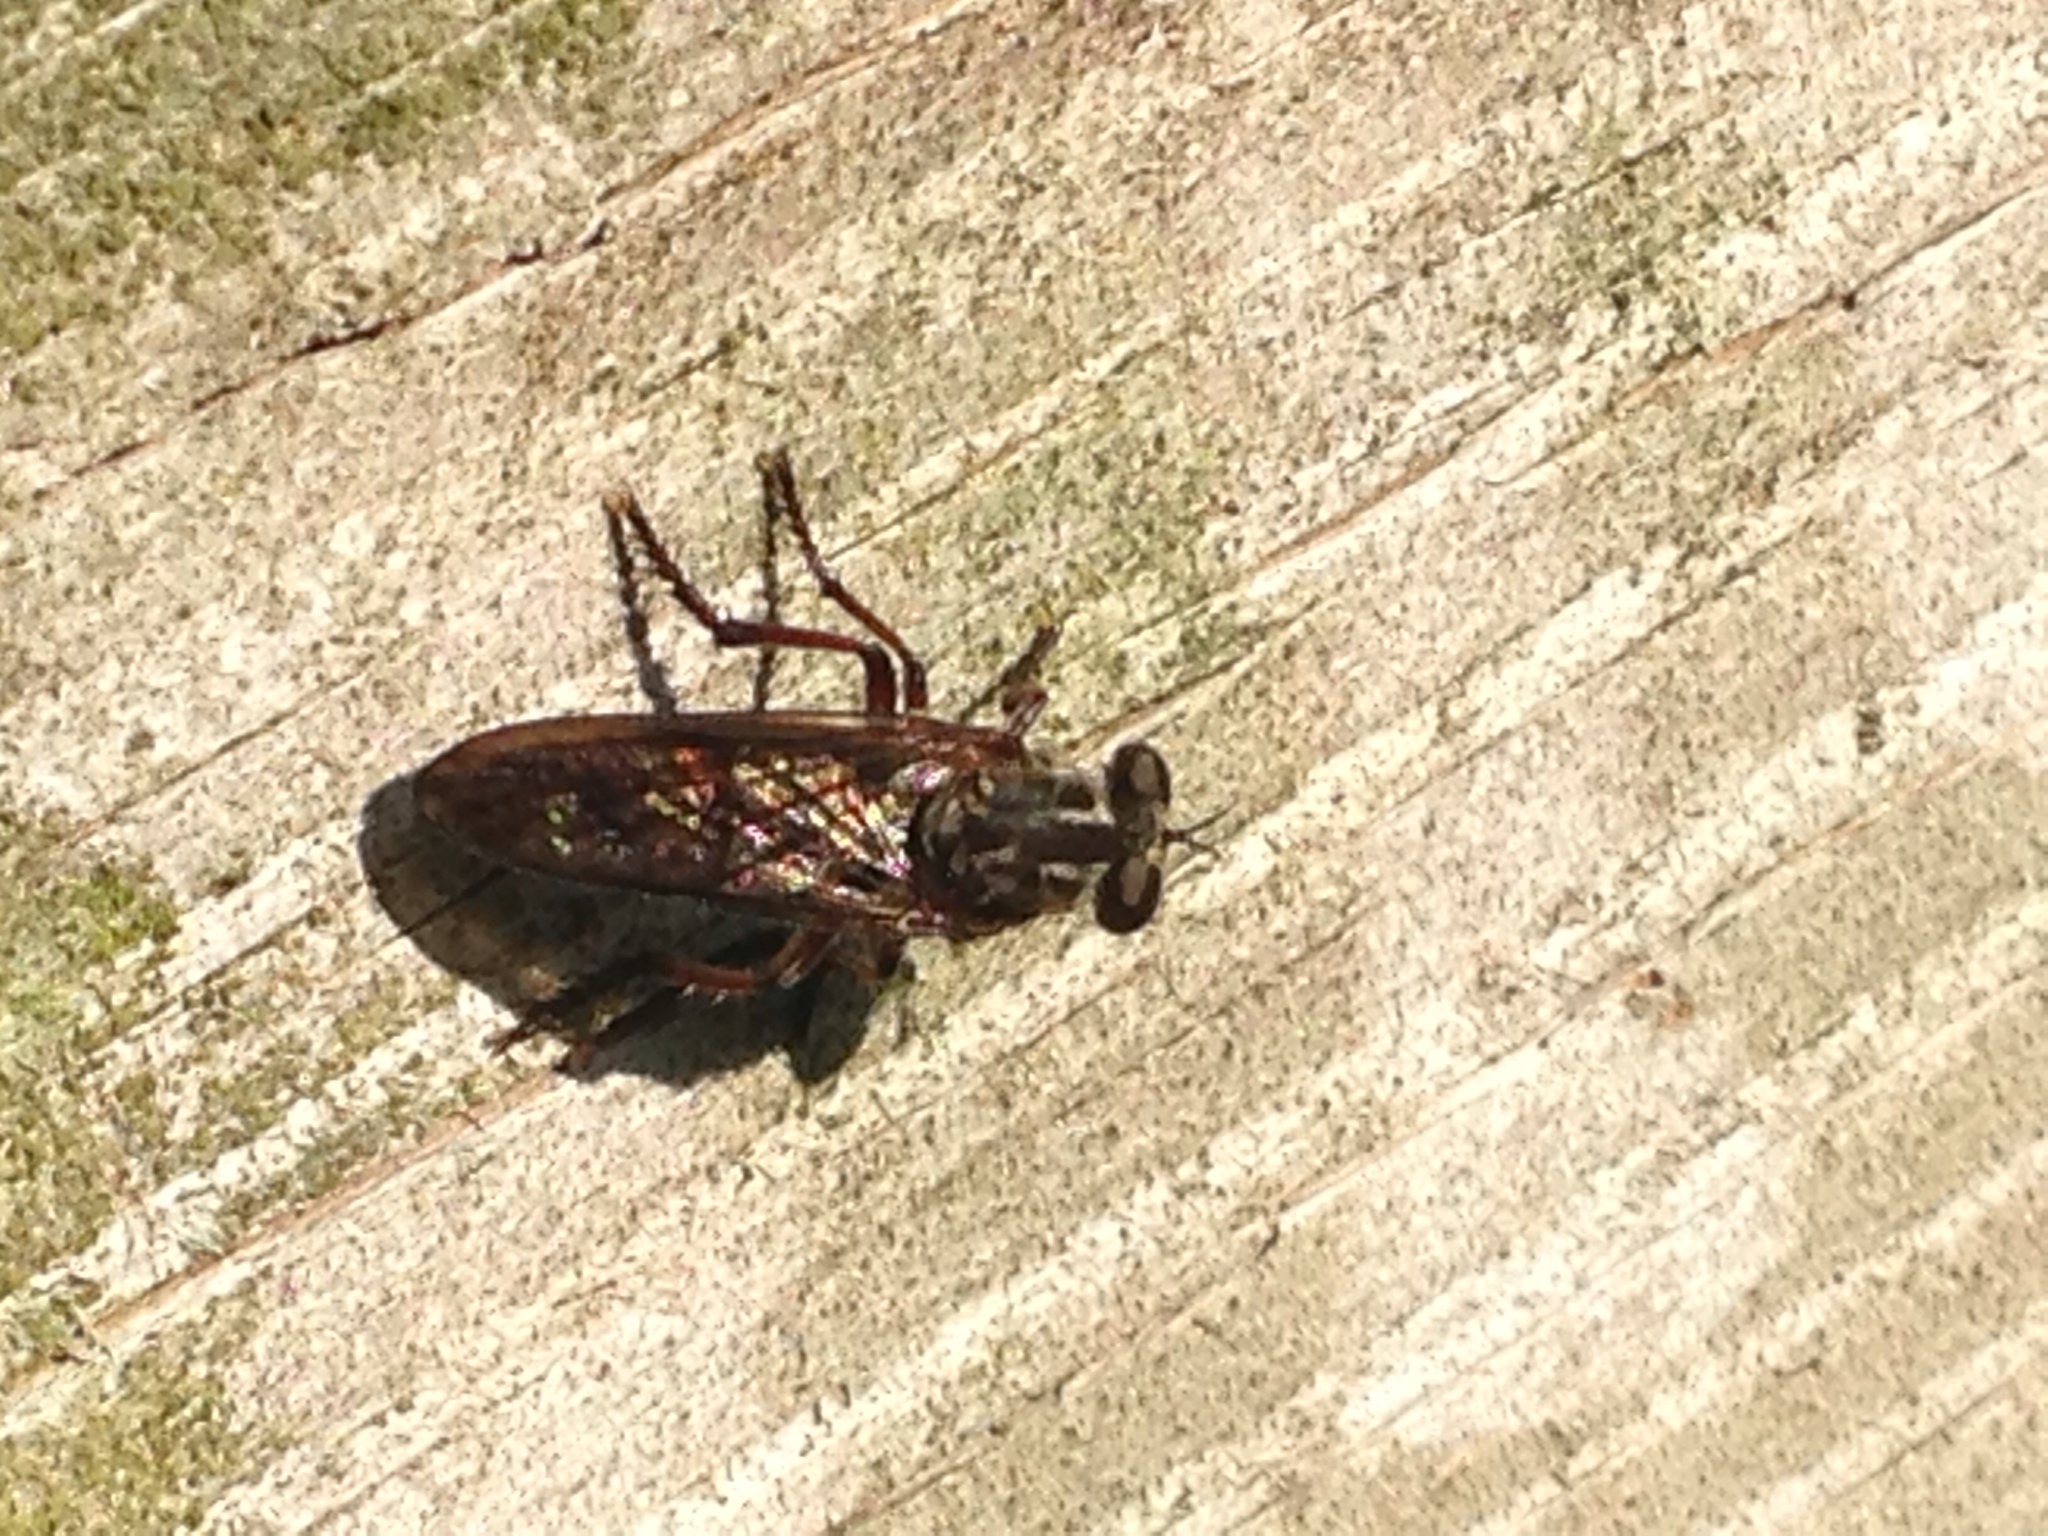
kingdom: Animalia
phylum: Arthropoda
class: Insecta
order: Diptera
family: Asilidae
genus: Heteropogon
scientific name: Heteropogon macerinus
